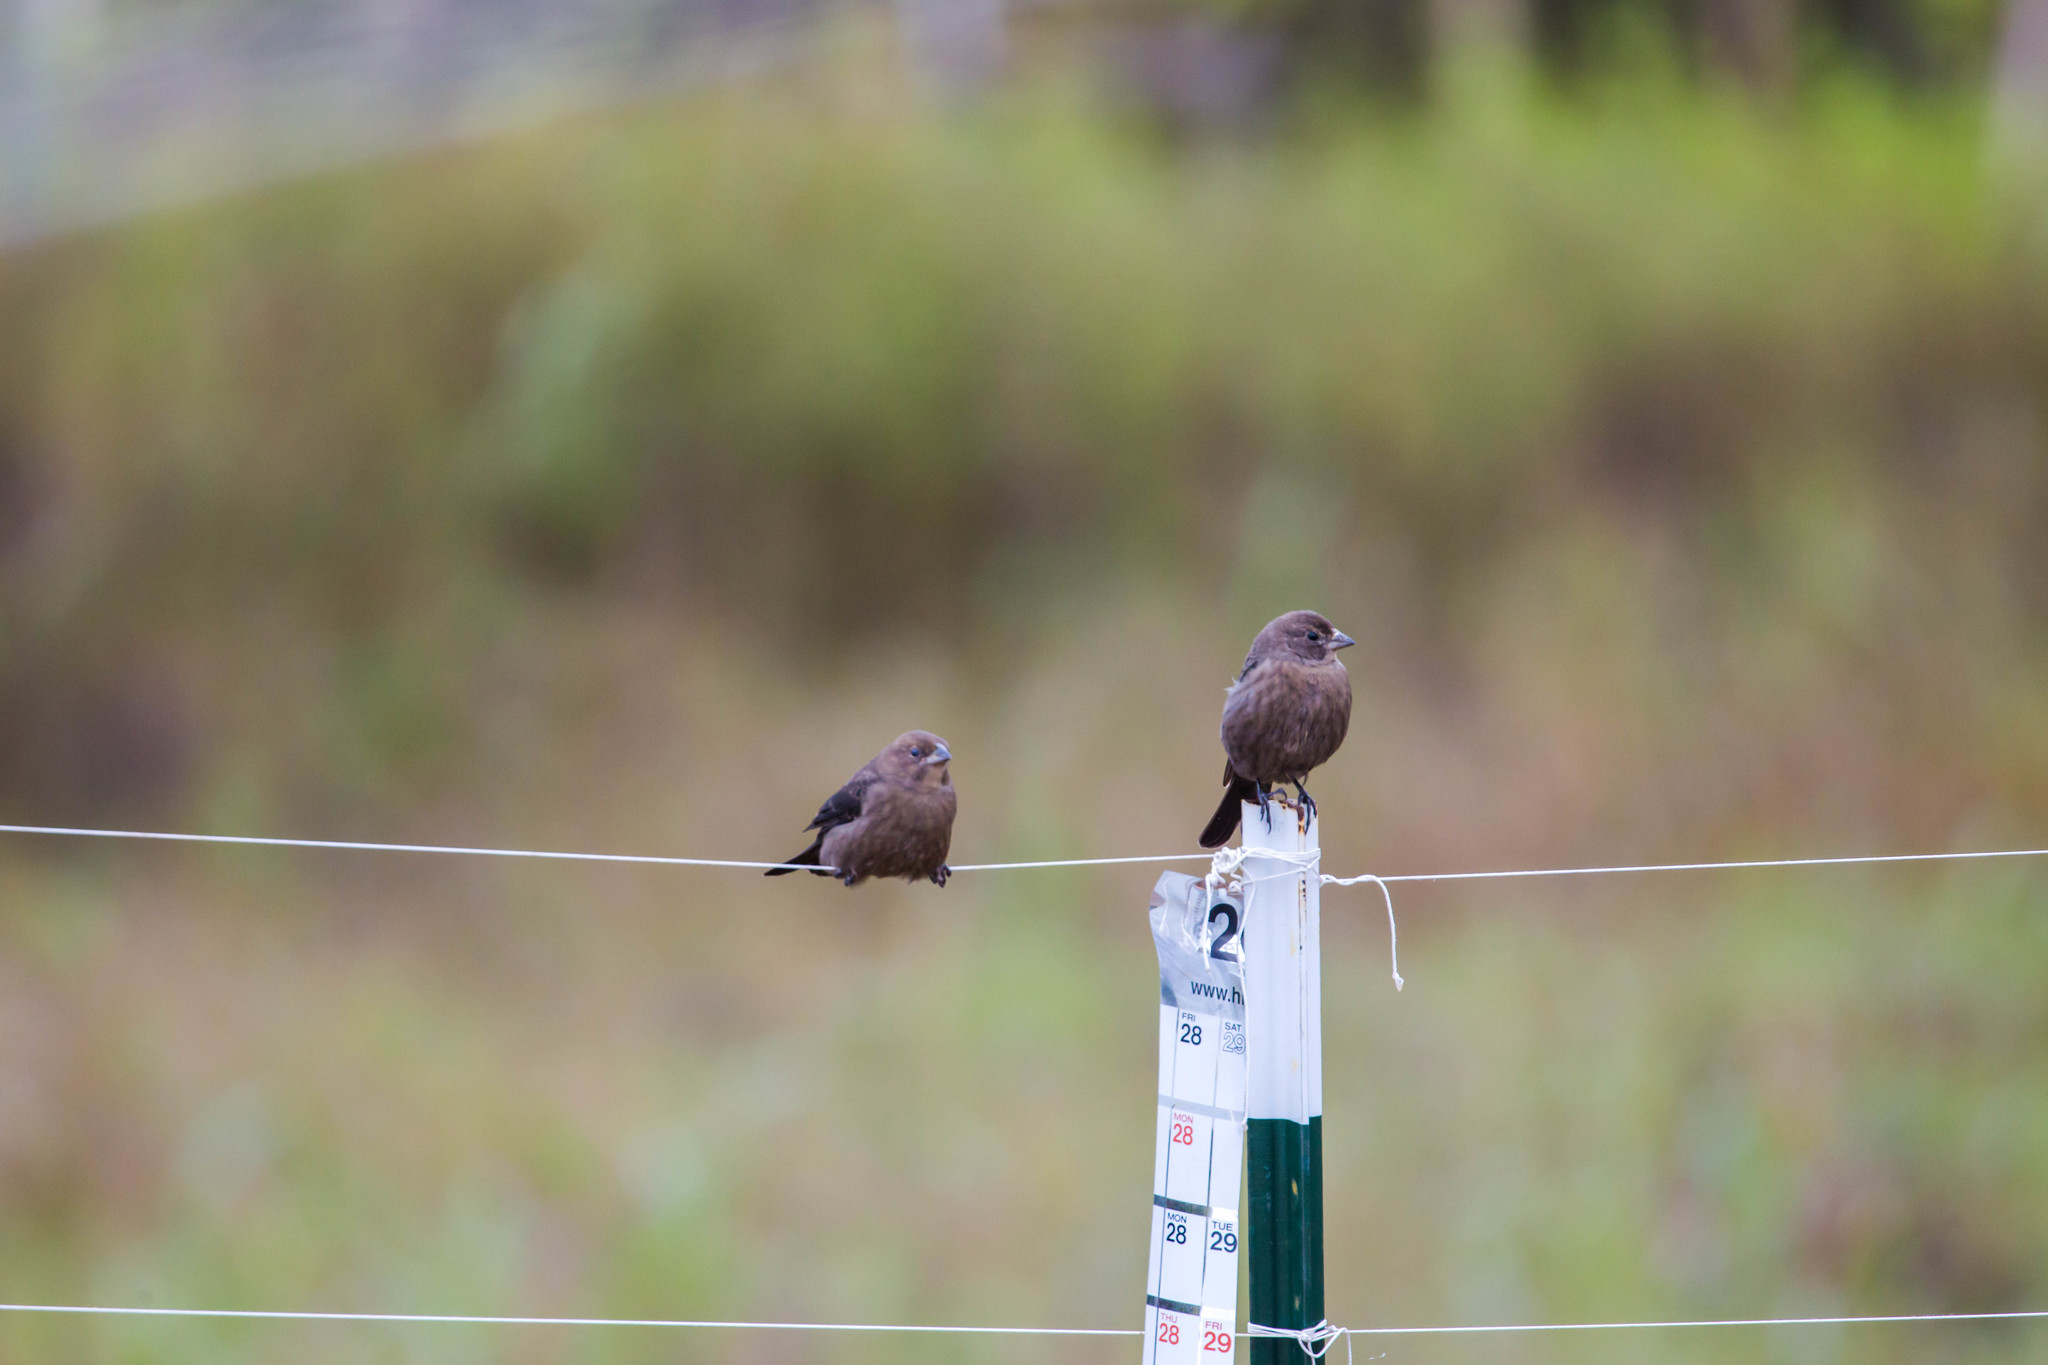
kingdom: Animalia
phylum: Chordata
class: Aves
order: Passeriformes
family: Icteridae
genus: Molothrus
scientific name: Molothrus ater
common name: Brown-headed cowbird
